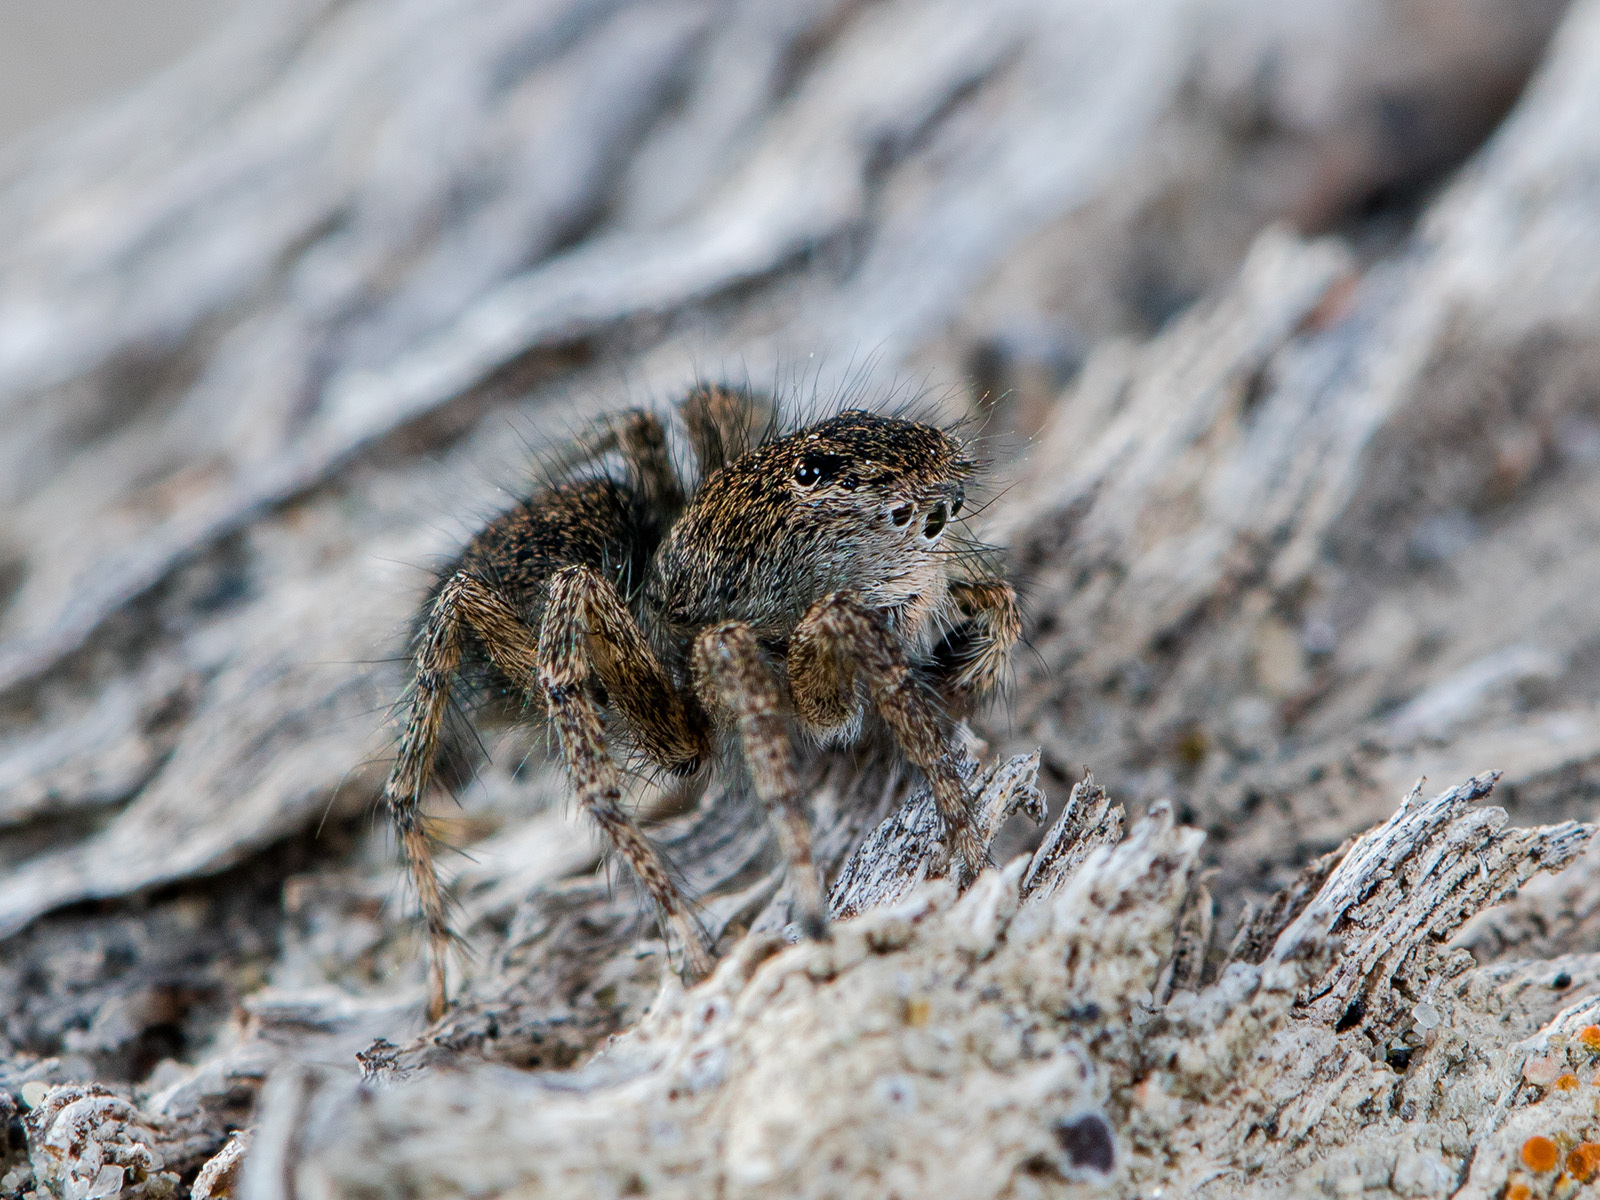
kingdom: Animalia
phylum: Arthropoda
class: Arachnida
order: Araneae
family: Salticidae
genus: Aelurillus
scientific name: Aelurillus dubatolovi
